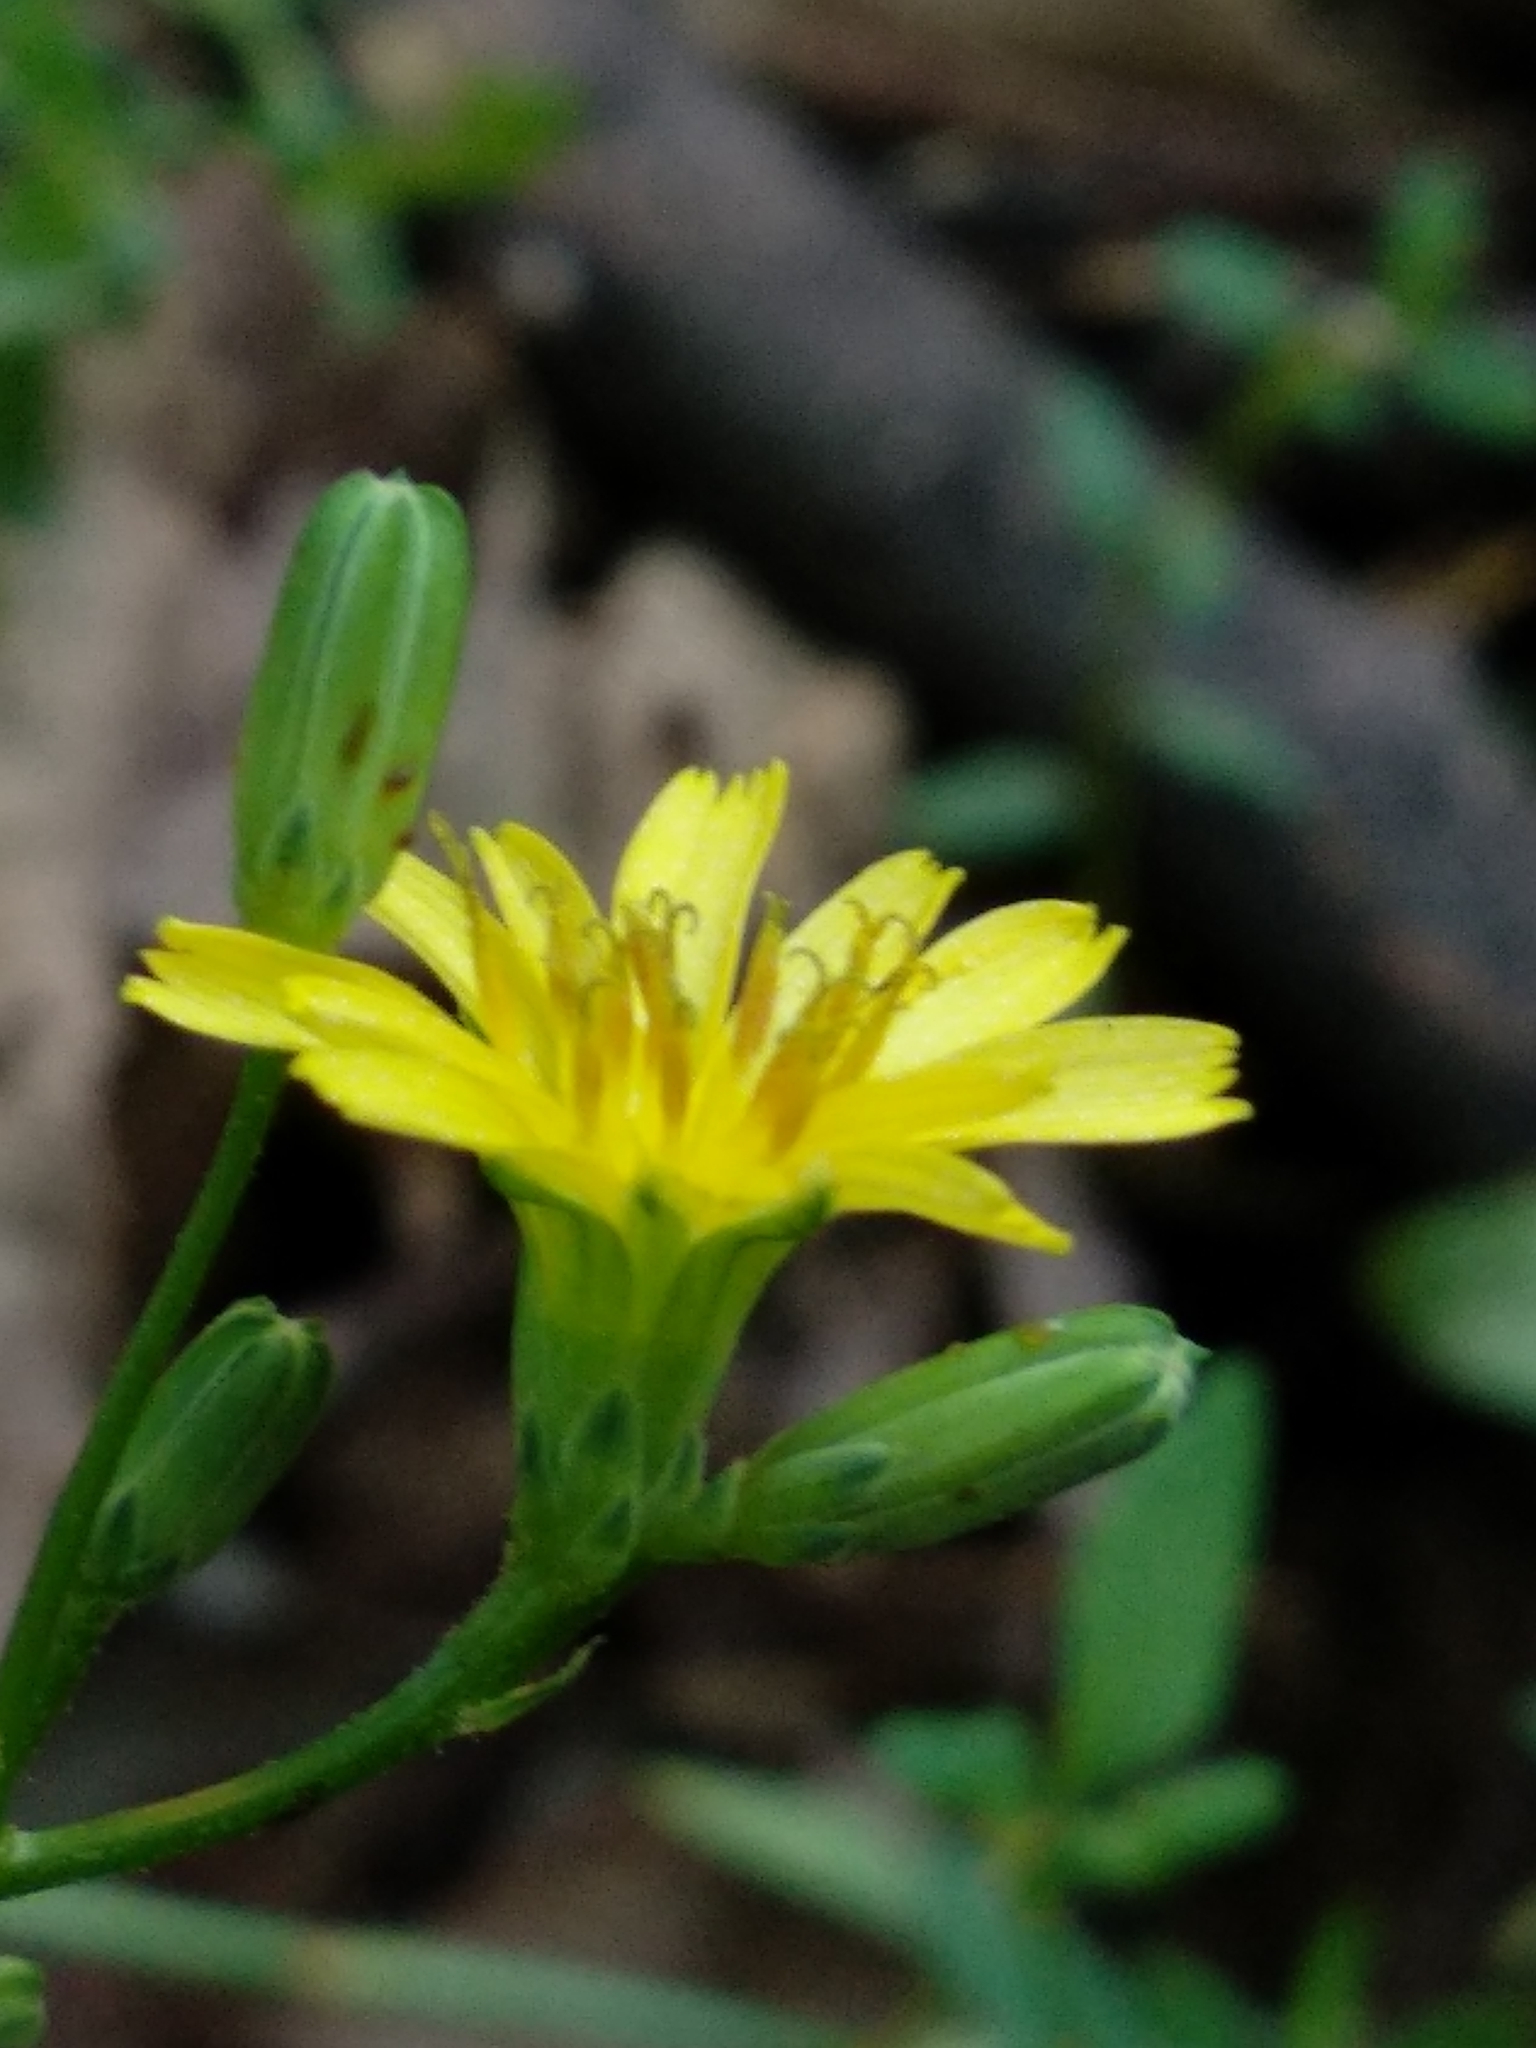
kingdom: Plantae
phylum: Tracheophyta
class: Magnoliopsida
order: Asterales
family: Asteraceae
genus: Lapsana
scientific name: Lapsana communis
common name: Nipplewort
